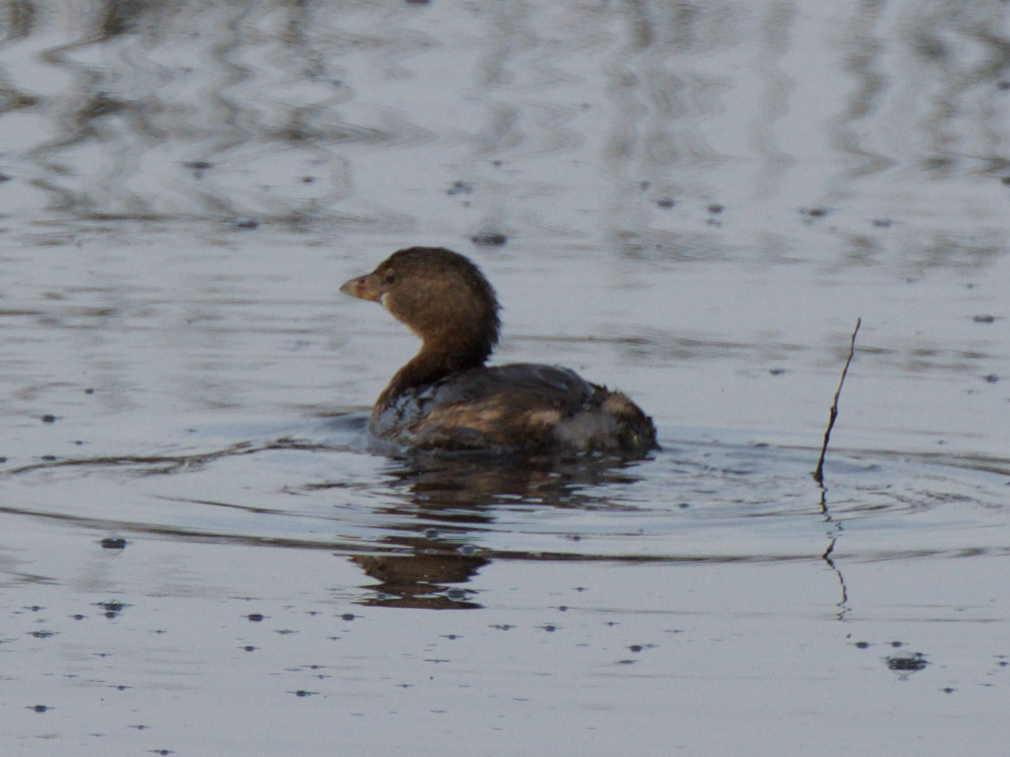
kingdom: Animalia
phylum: Chordata
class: Aves
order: Podicipediformes
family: Podicipedidae
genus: Podilymbus
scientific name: Podilymbus podiceps
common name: Pied-billed grebe
